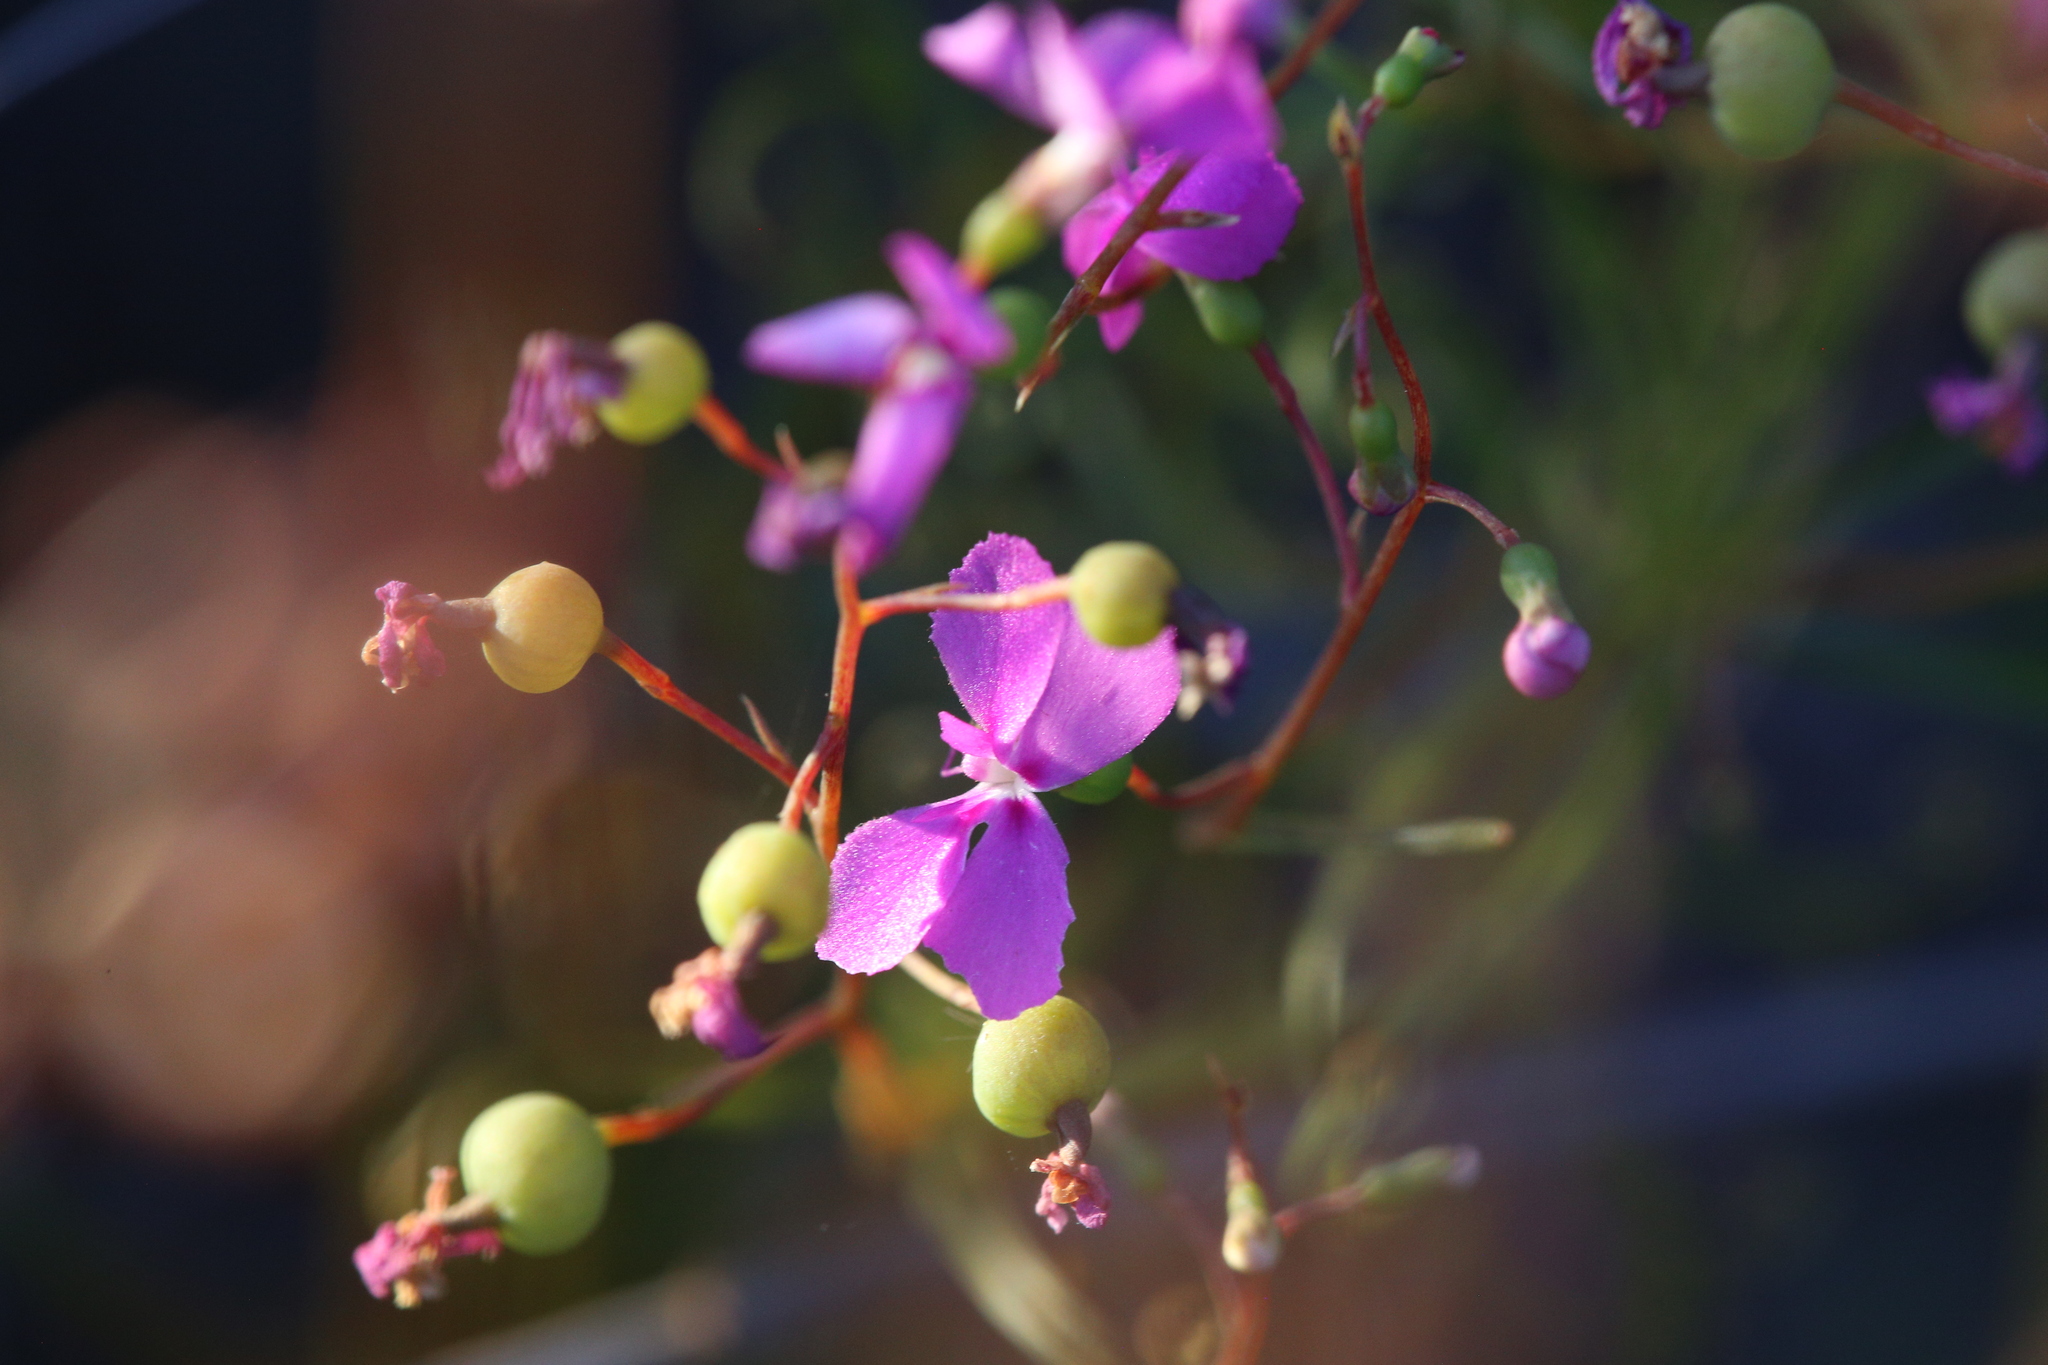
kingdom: Plantae
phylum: Tracheophyta
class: Magnoliopsida
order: Asterales
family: Stylidiaceae
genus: Stylidium
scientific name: Stylidium scandens
